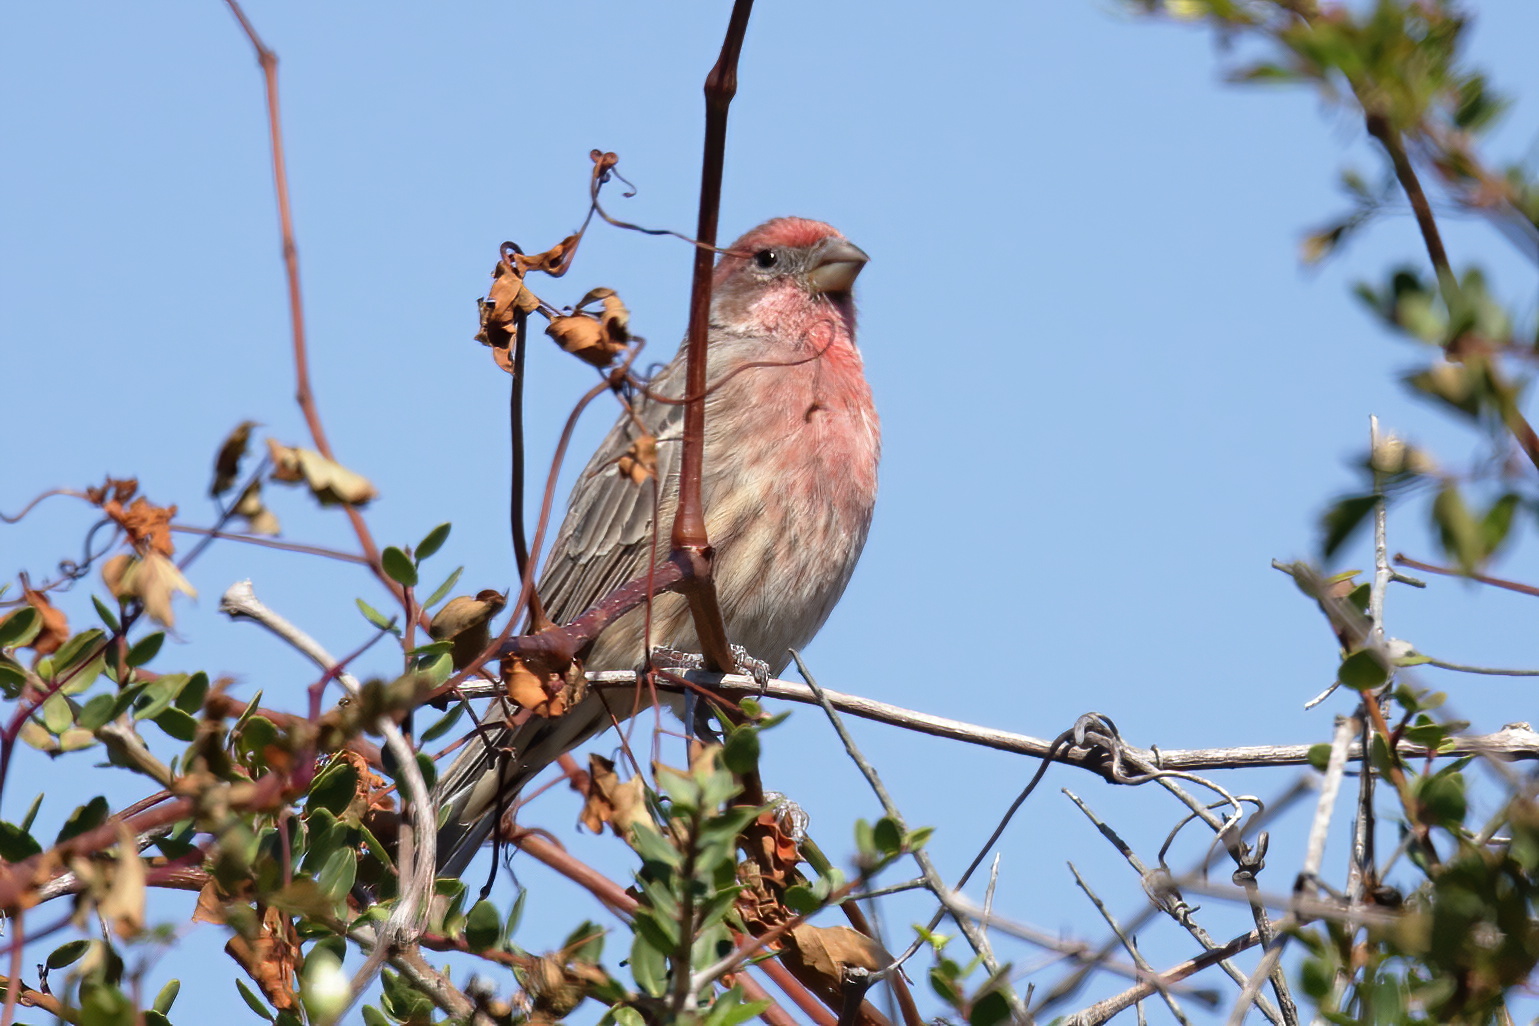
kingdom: Animalia
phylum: Chordata
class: Aves
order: Passeriformes
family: Fringillidae
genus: Haemorhous
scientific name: Haemorhous mexicanus
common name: House finch
